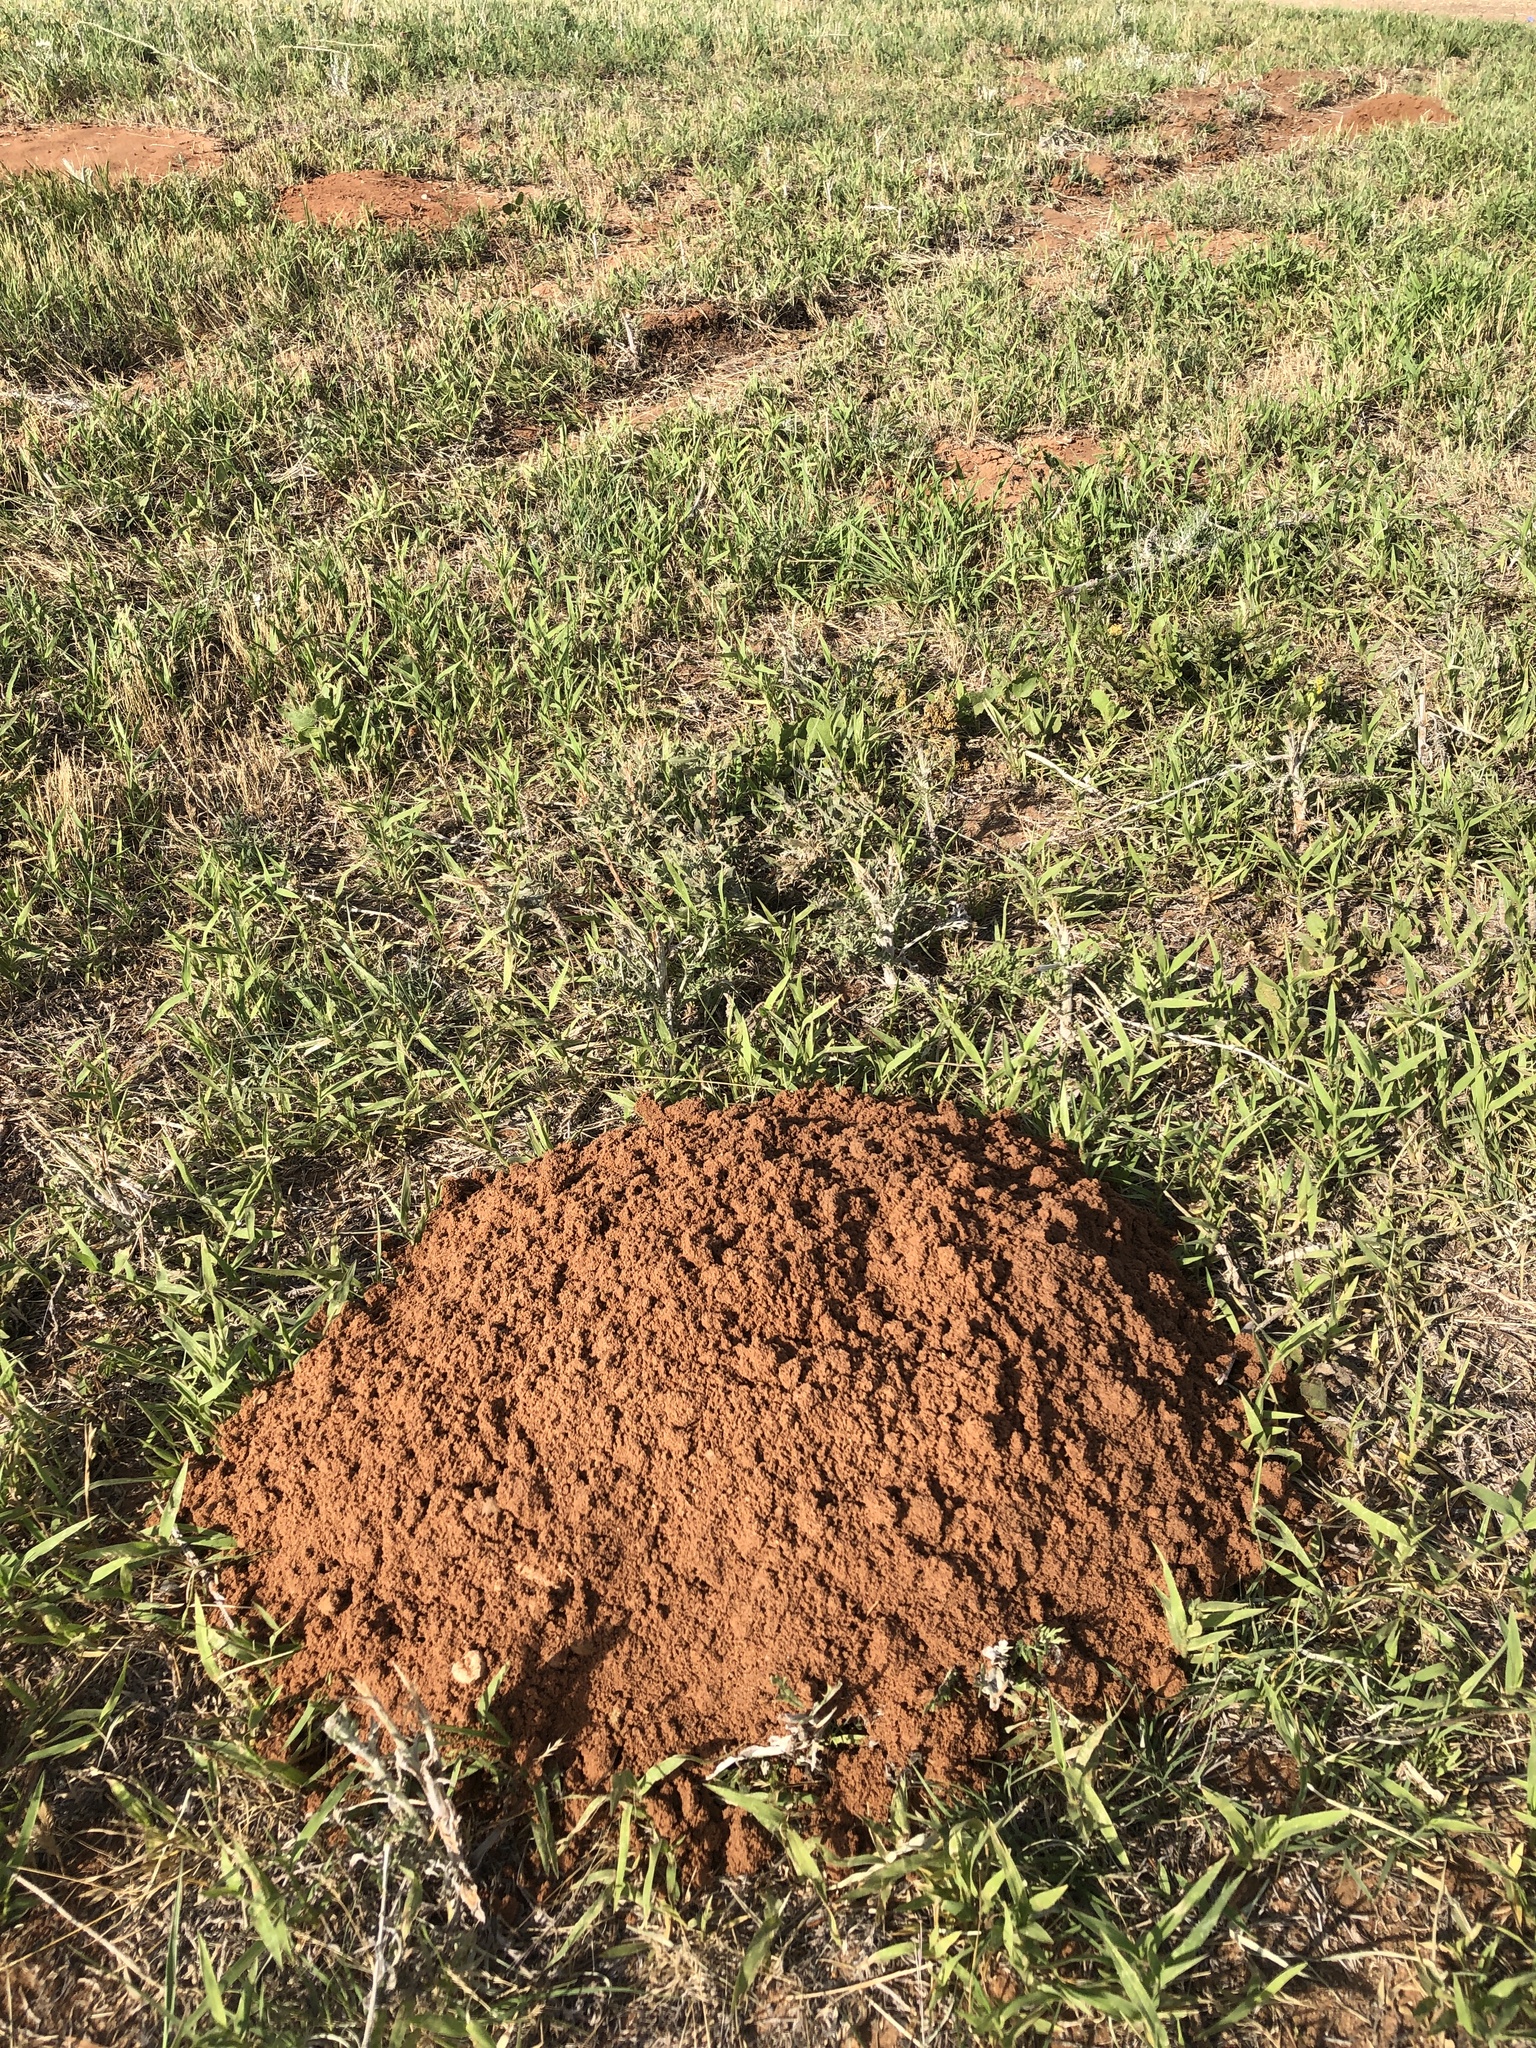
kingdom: Animalia
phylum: Chordata
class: Mammalia
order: Rodentia
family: Geomyidae
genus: Geomys
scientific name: Geomys bursarius
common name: Plains pocket gopher
